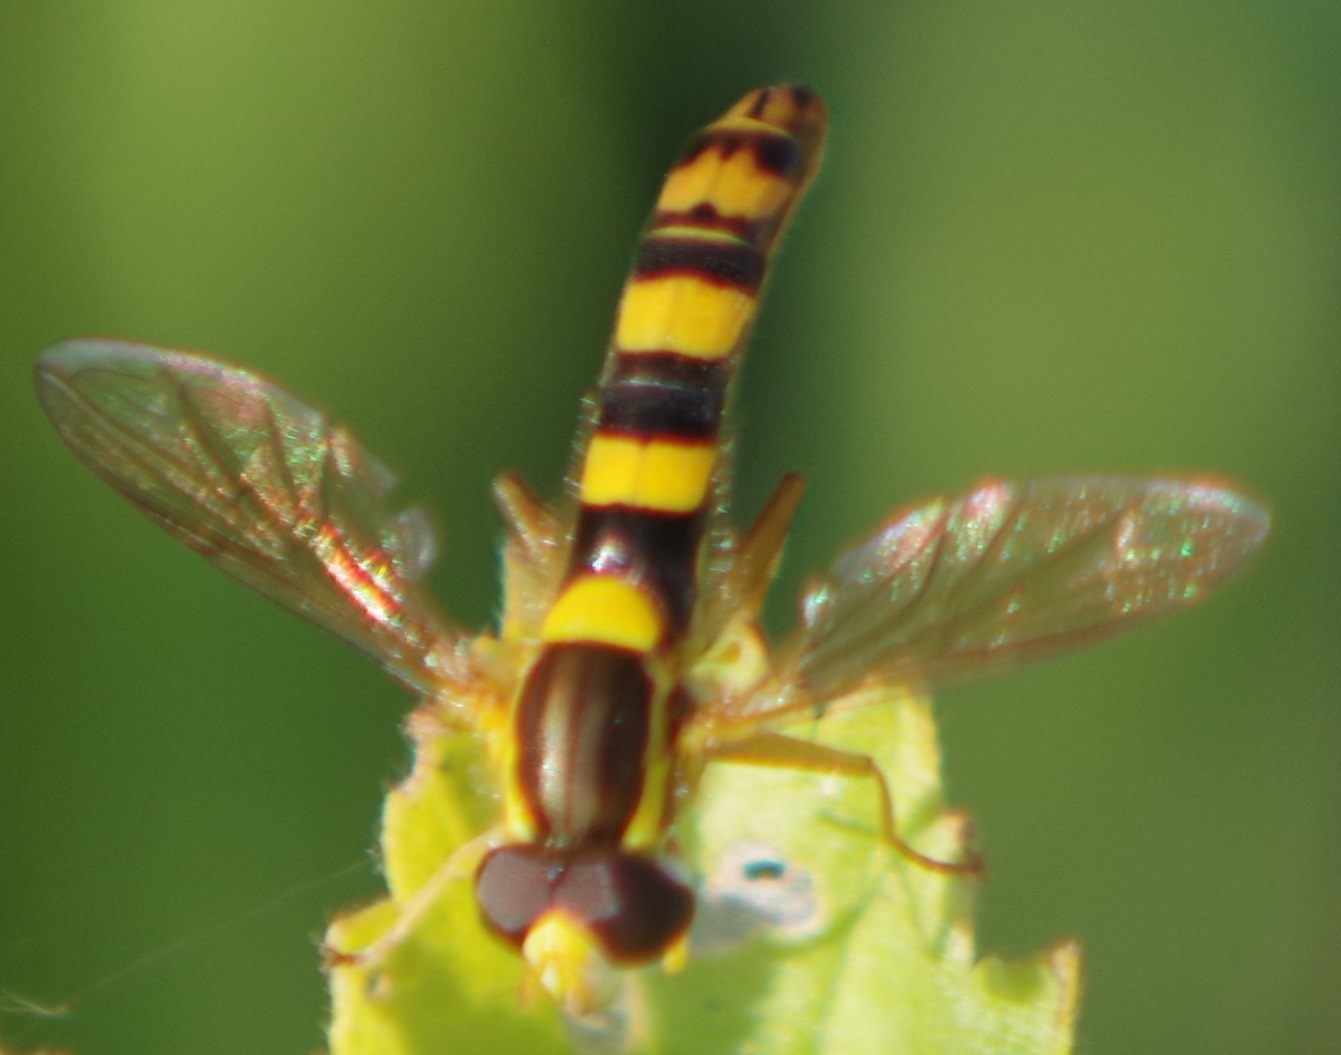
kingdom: Animalia
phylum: Arthropoda
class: Insecta
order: Diptera
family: Syrphidae
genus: Sphaerophoria
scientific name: Sphaerophoria scripta
